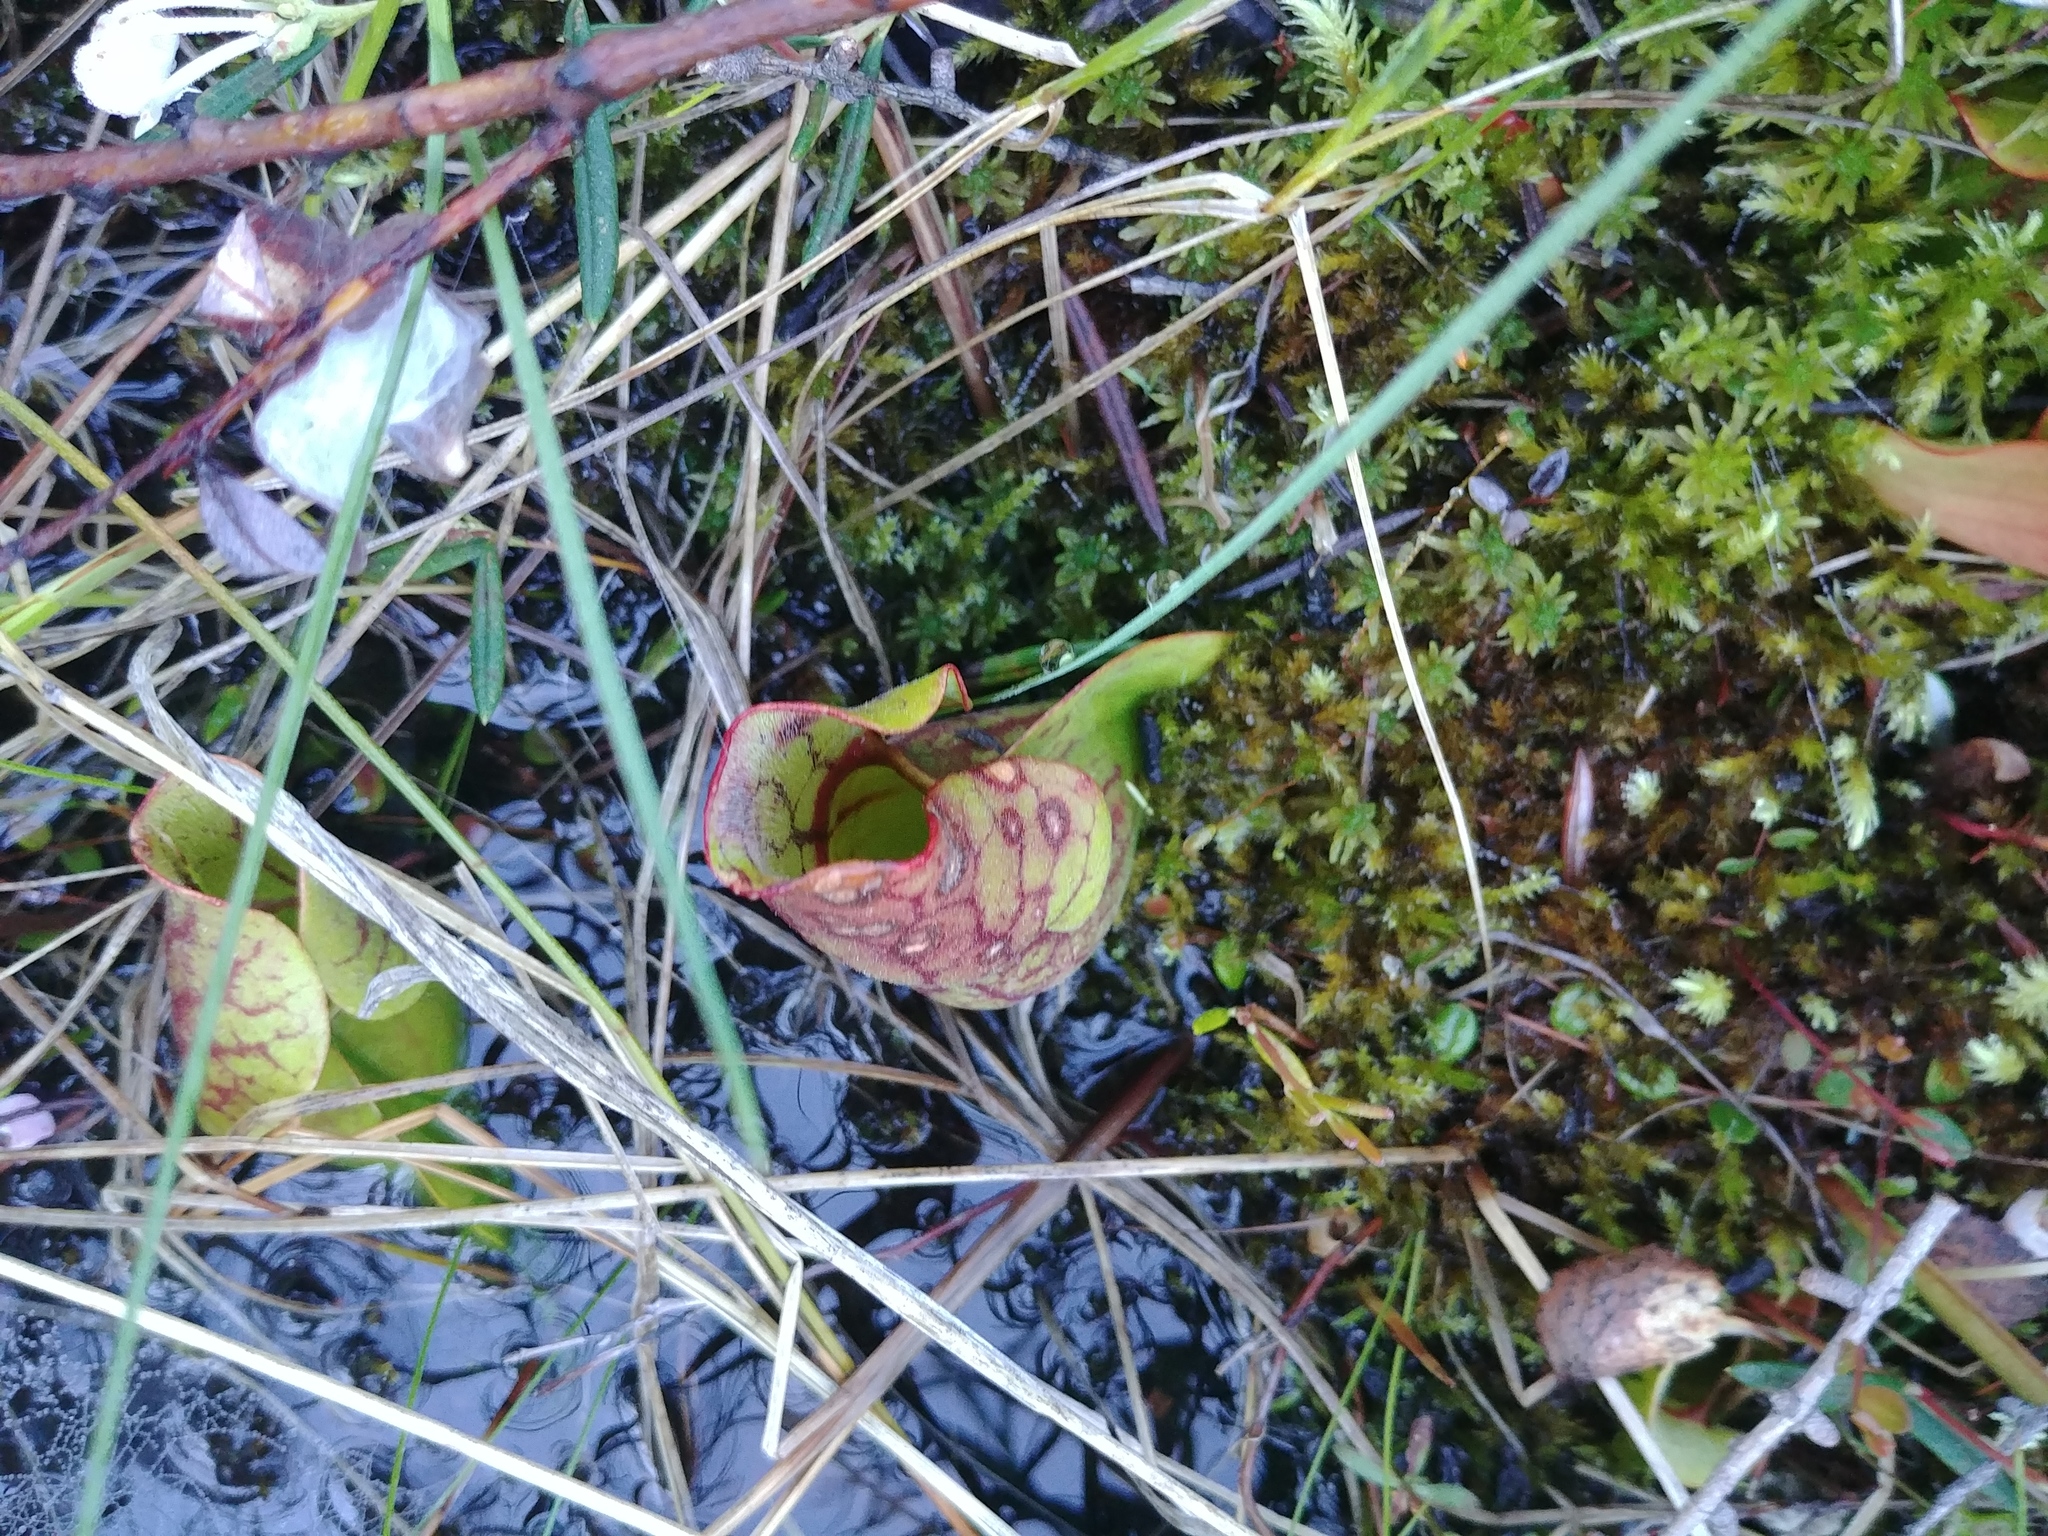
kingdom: Plantae
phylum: Tracheophyta
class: Magnoliopsida
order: Ericales
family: Sarraceniaceae
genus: Sarracenia
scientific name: Sarracenia purpurea
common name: Pitcherplant
